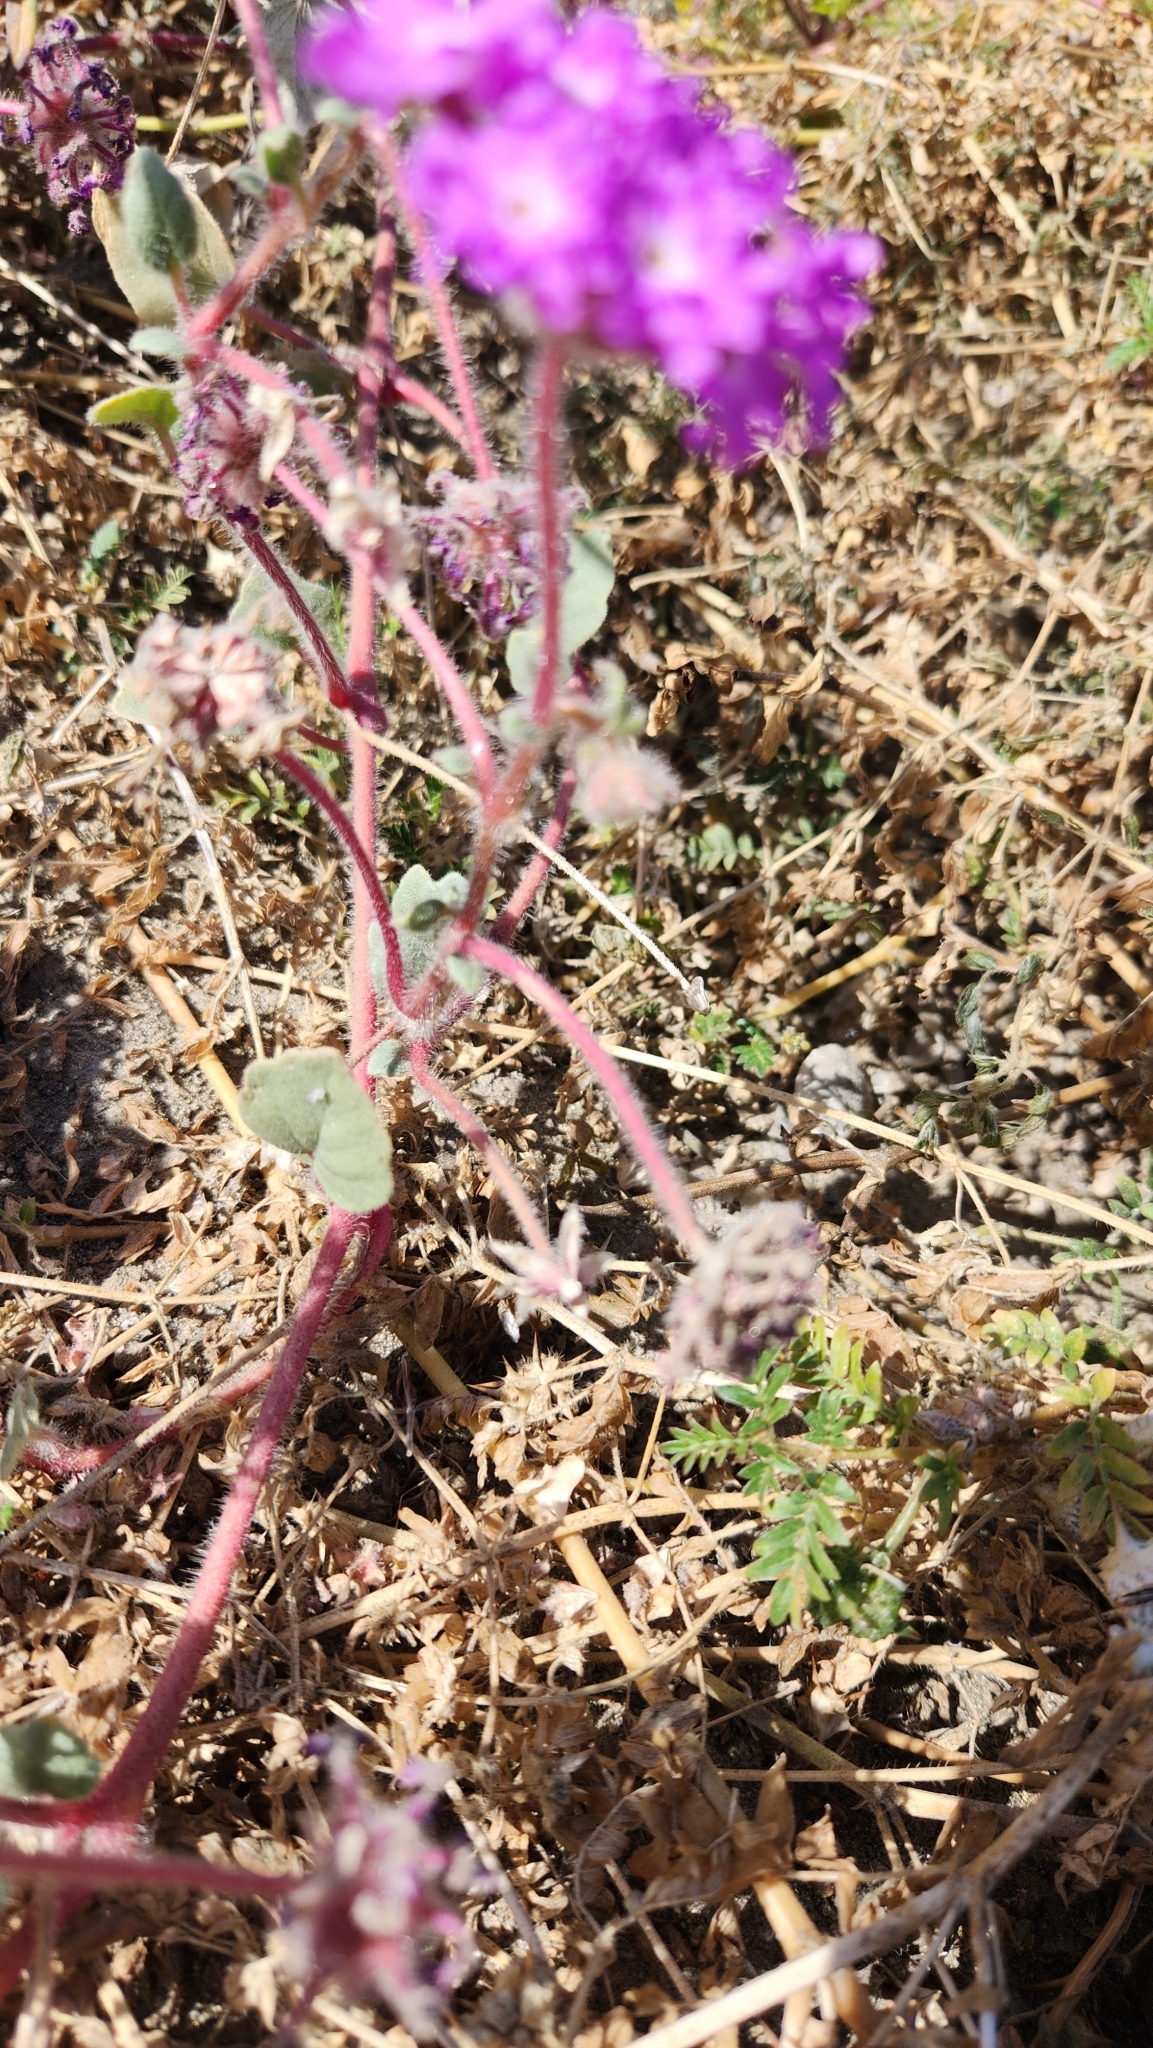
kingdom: Plantae
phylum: Tracheophyta
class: Magnoliopsida
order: Caryophyllales
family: Nyctaginaceae
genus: Abronia
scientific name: Abronia villosa
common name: Desert sand-verbena
